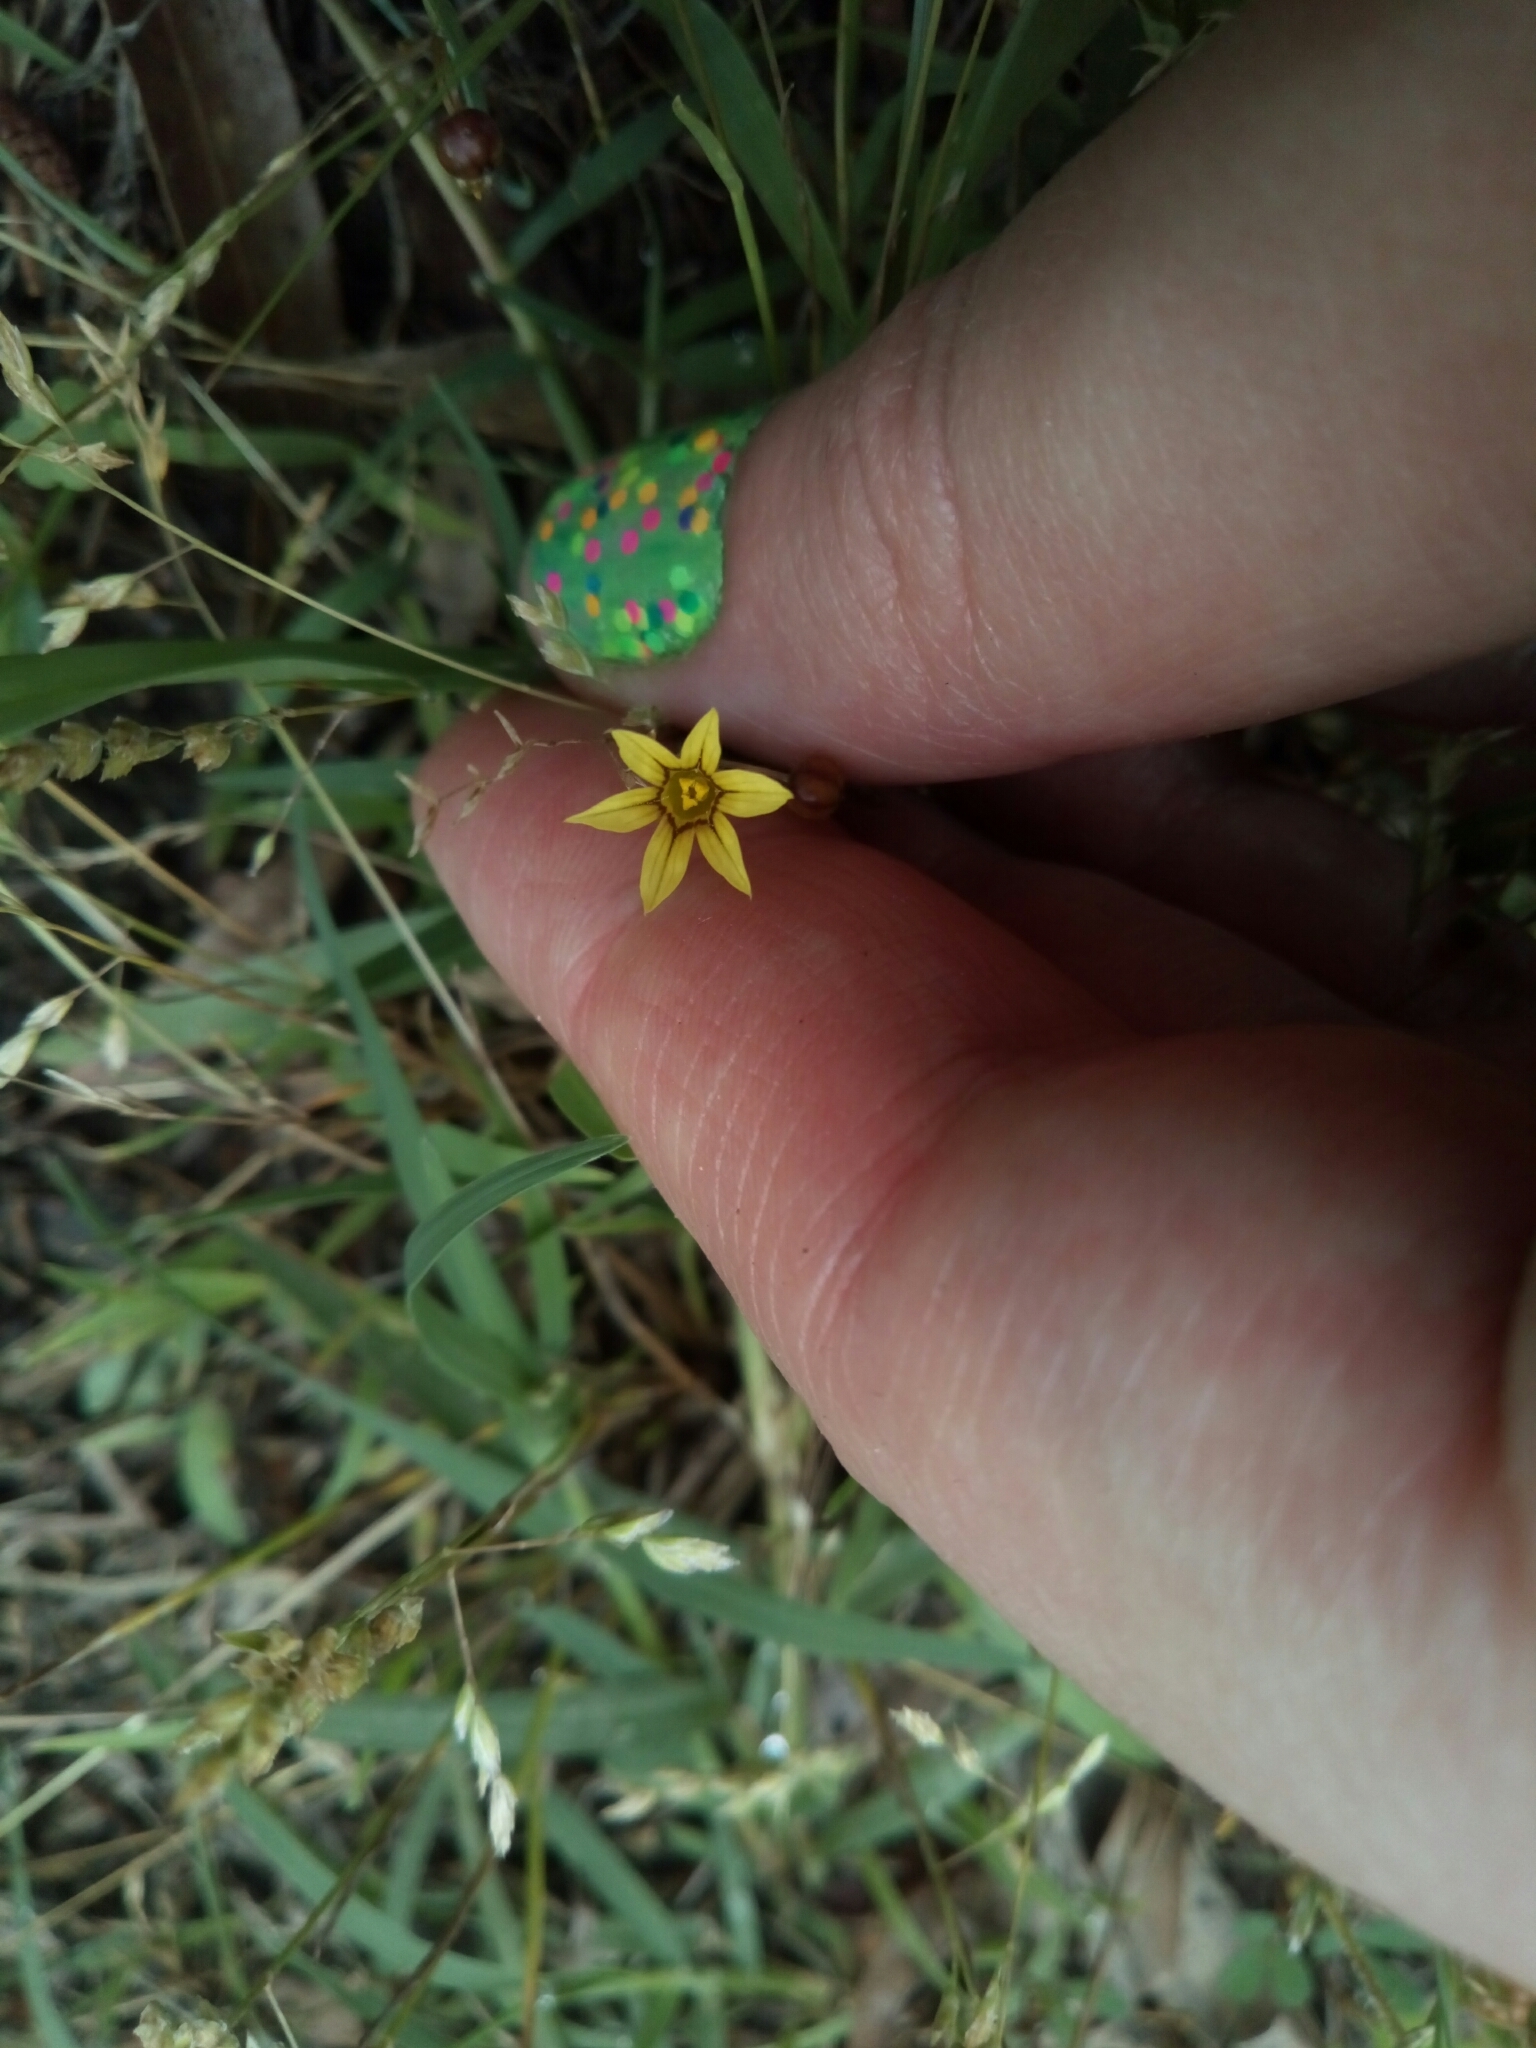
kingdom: Plantae
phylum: Tracheophyta
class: Liliopsida
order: Asparagales
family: Iridaceae
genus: Sisyrinchium
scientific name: Sisyrinchium micranthum
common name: Bermuda pigroot
